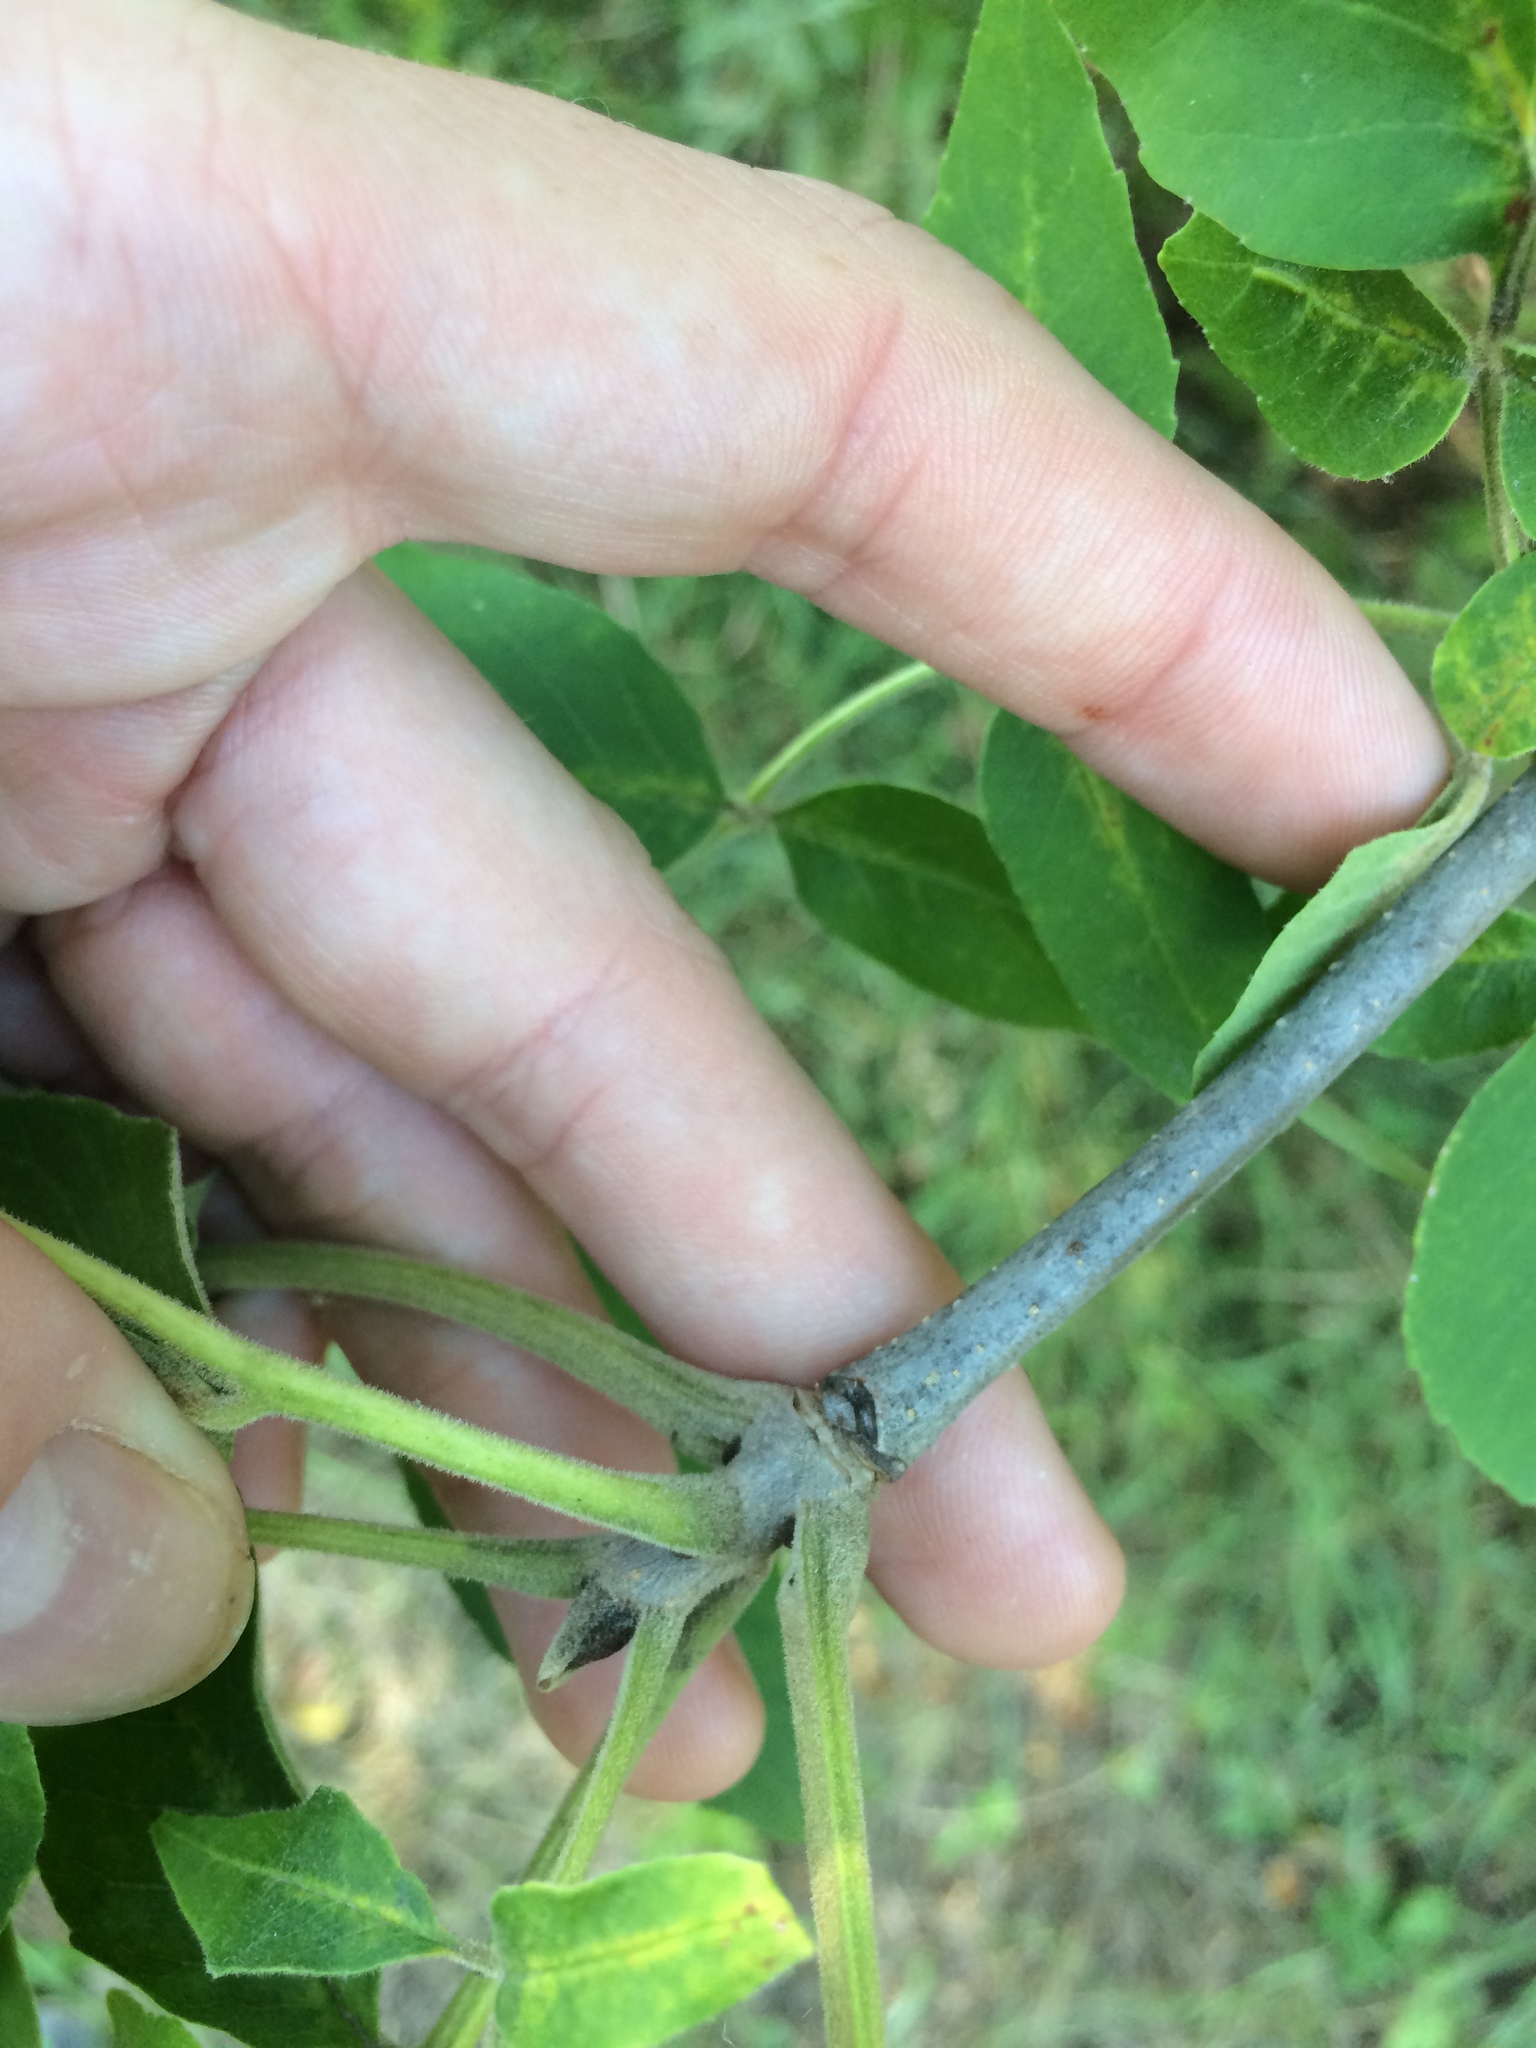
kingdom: Plantae
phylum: Tracheophyta
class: Magnoliopsida
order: Lamiales
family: Oleaceae
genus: Fraxinus
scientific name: Fraxinus pennsylvanica
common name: Green ash
